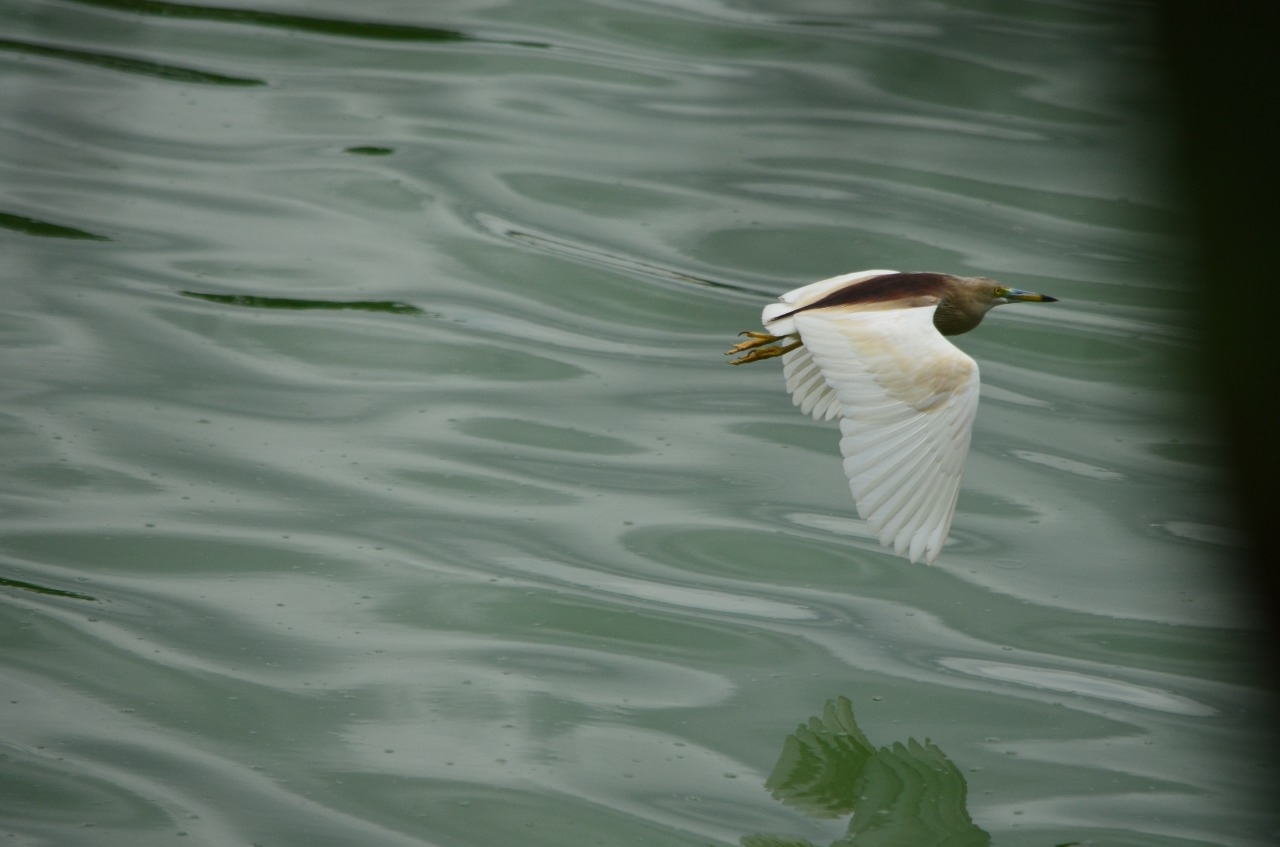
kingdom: Animalia
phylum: Chordata
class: Aves
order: Pelecaniformes
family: Ardeidae
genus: Ardeola
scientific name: Ardeola grayii
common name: Indian pond heron
